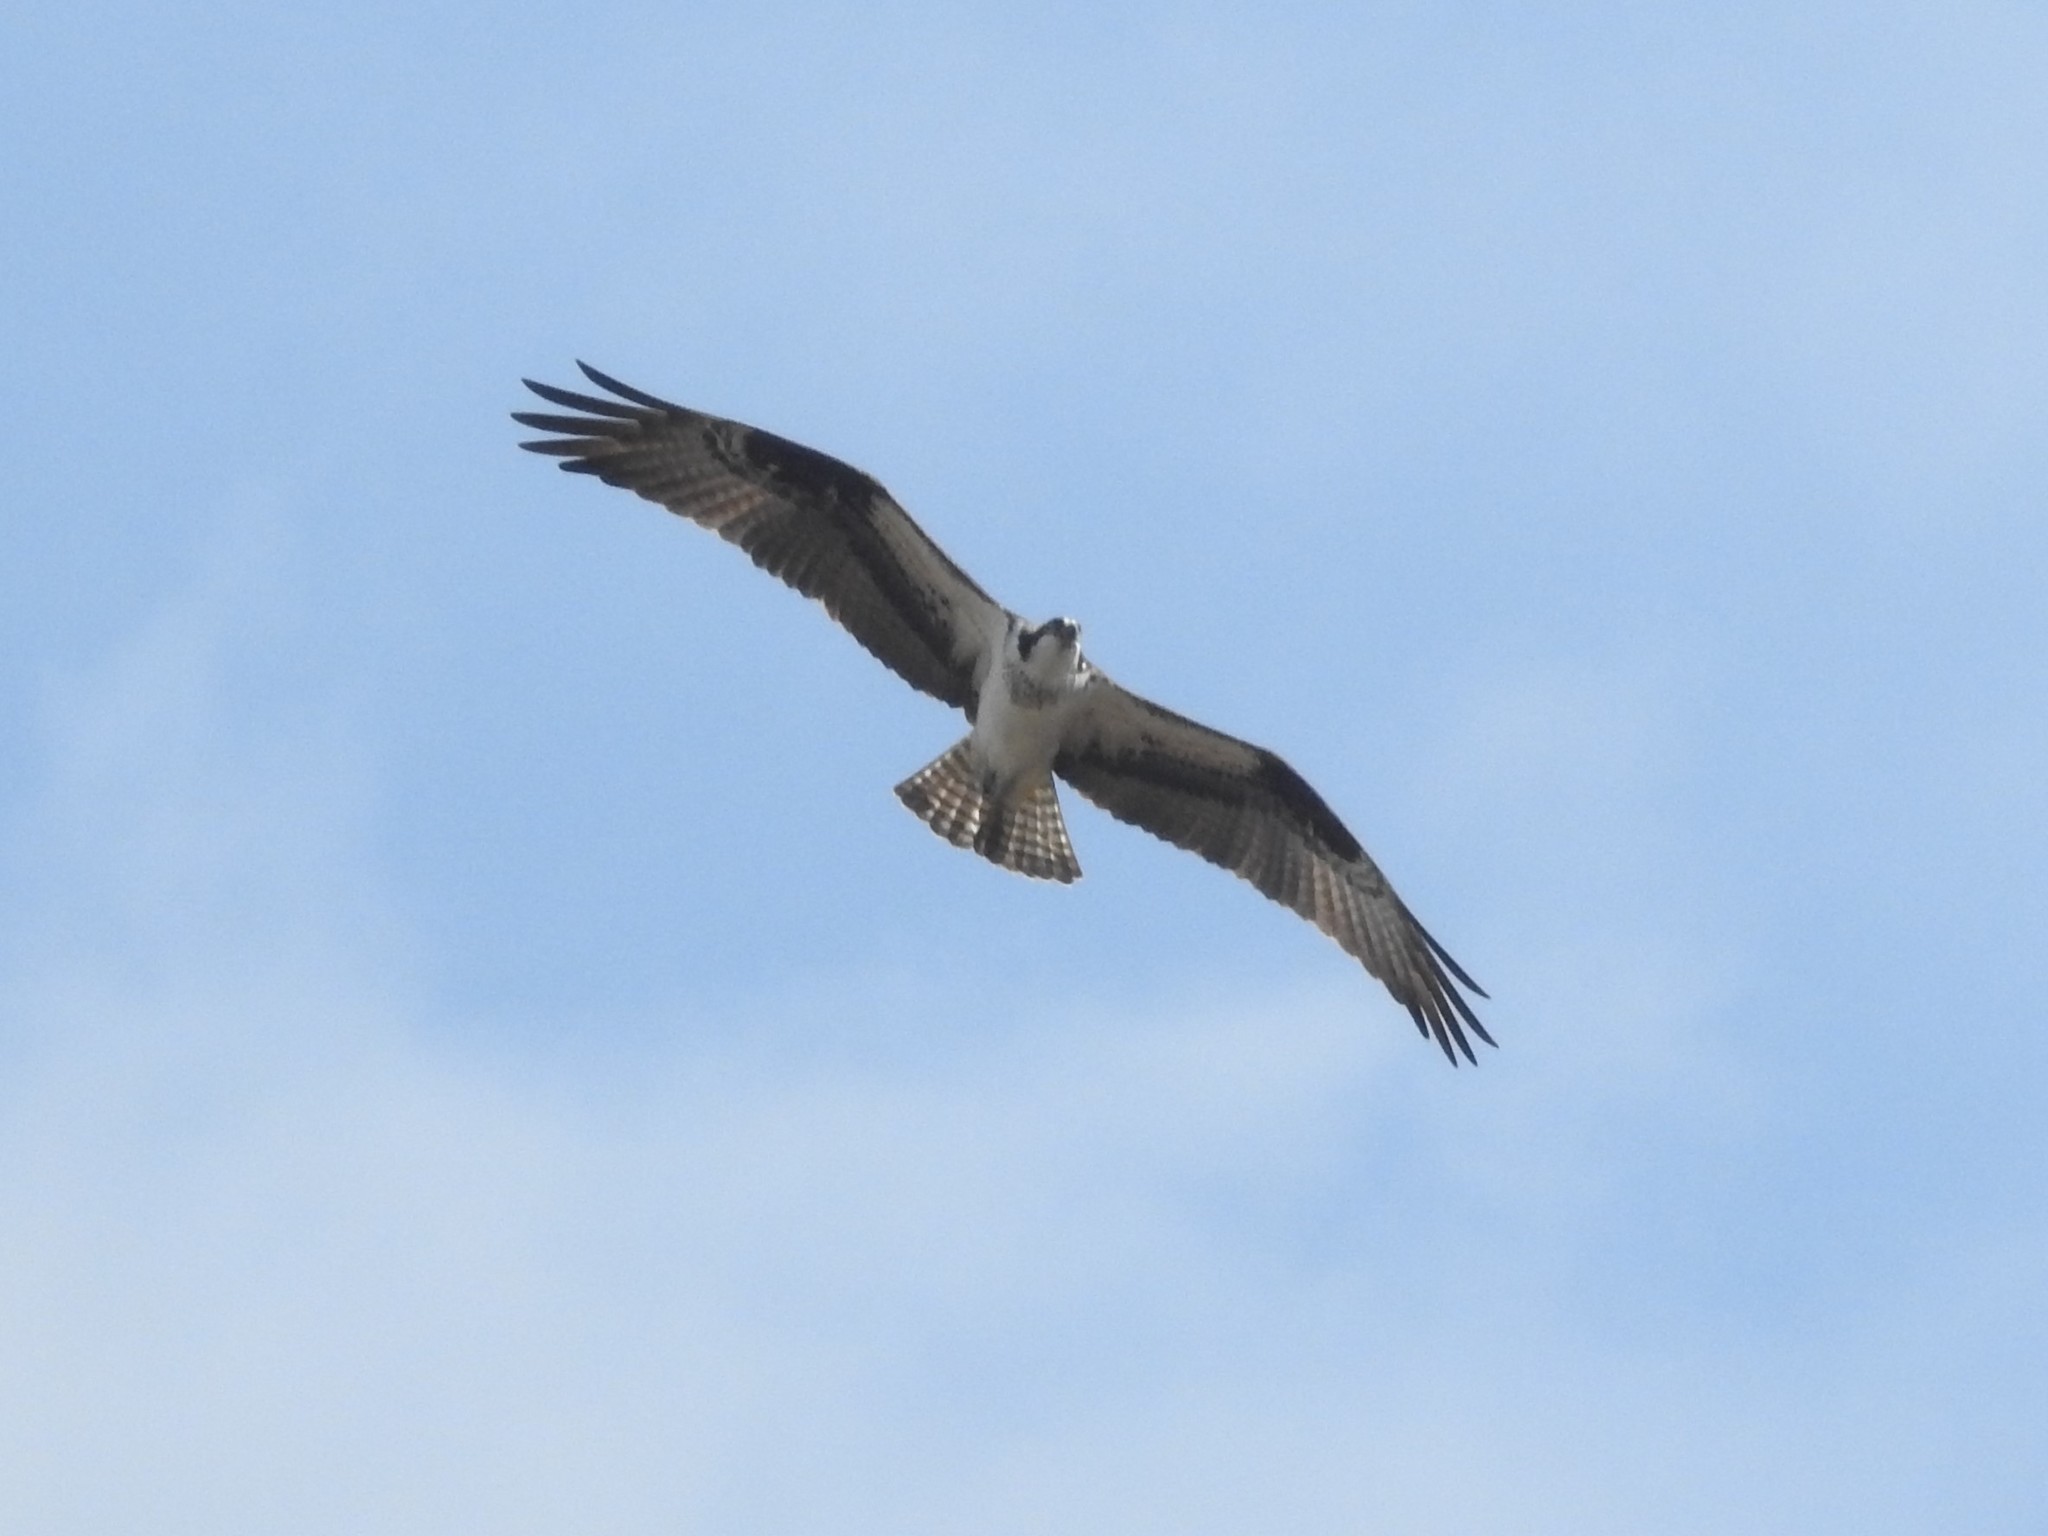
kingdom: Animalia
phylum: Chordata
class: Aves
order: Accipitriformes
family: Pandionidae
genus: Pandion
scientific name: Pandion haliaetus
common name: Osprey
